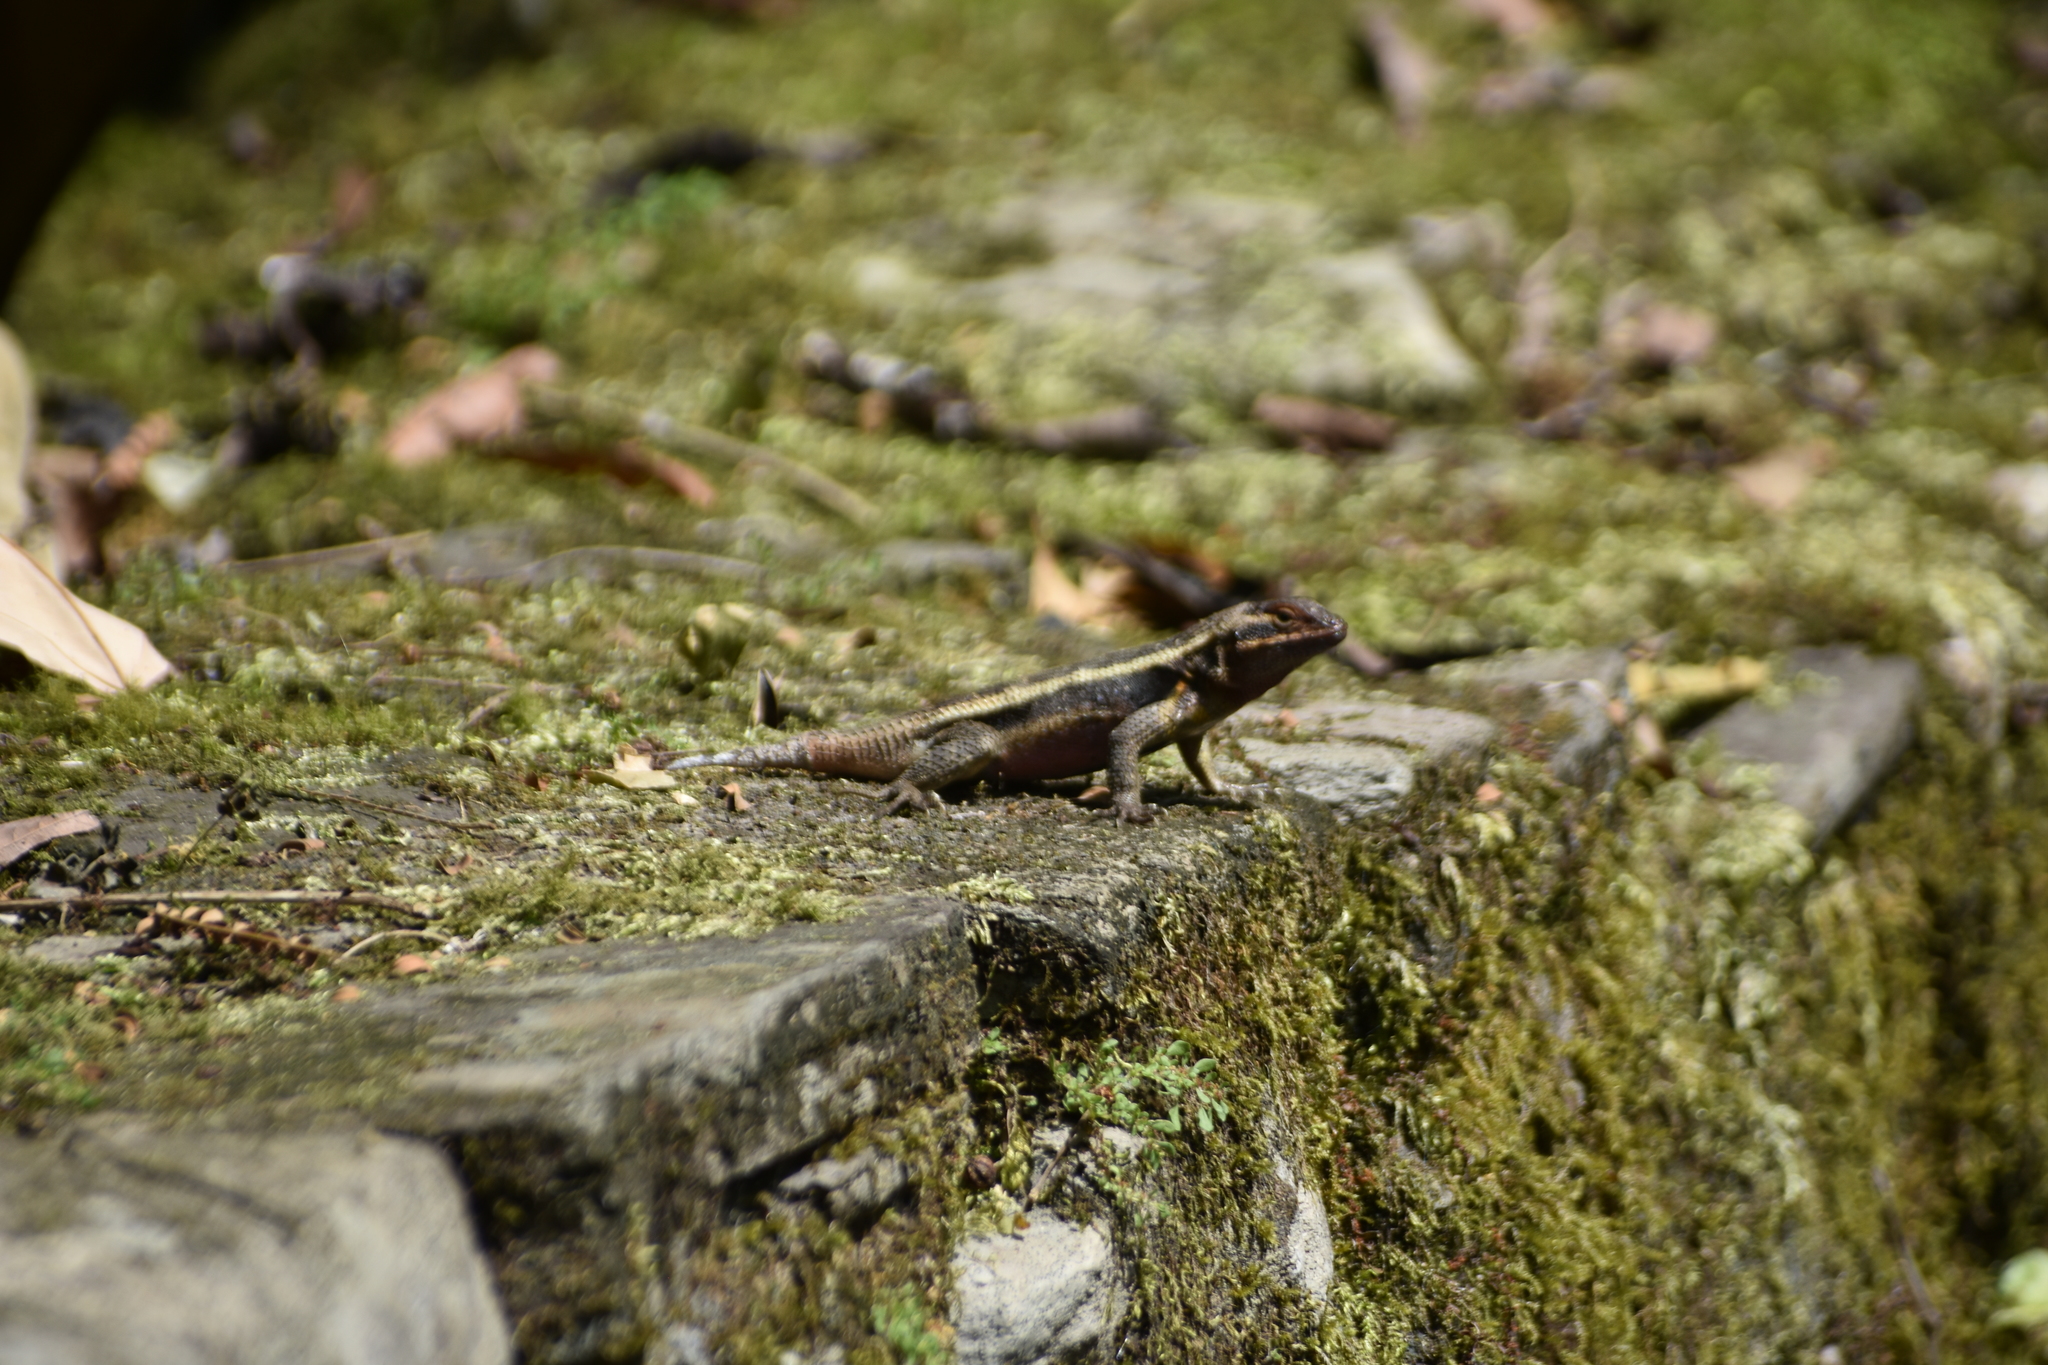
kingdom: Animalia
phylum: Chordata
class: Squamata
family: Phrynosomatidae
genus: Sceloporus
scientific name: Sceloporus variabilis
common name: Rosebelly lizard
